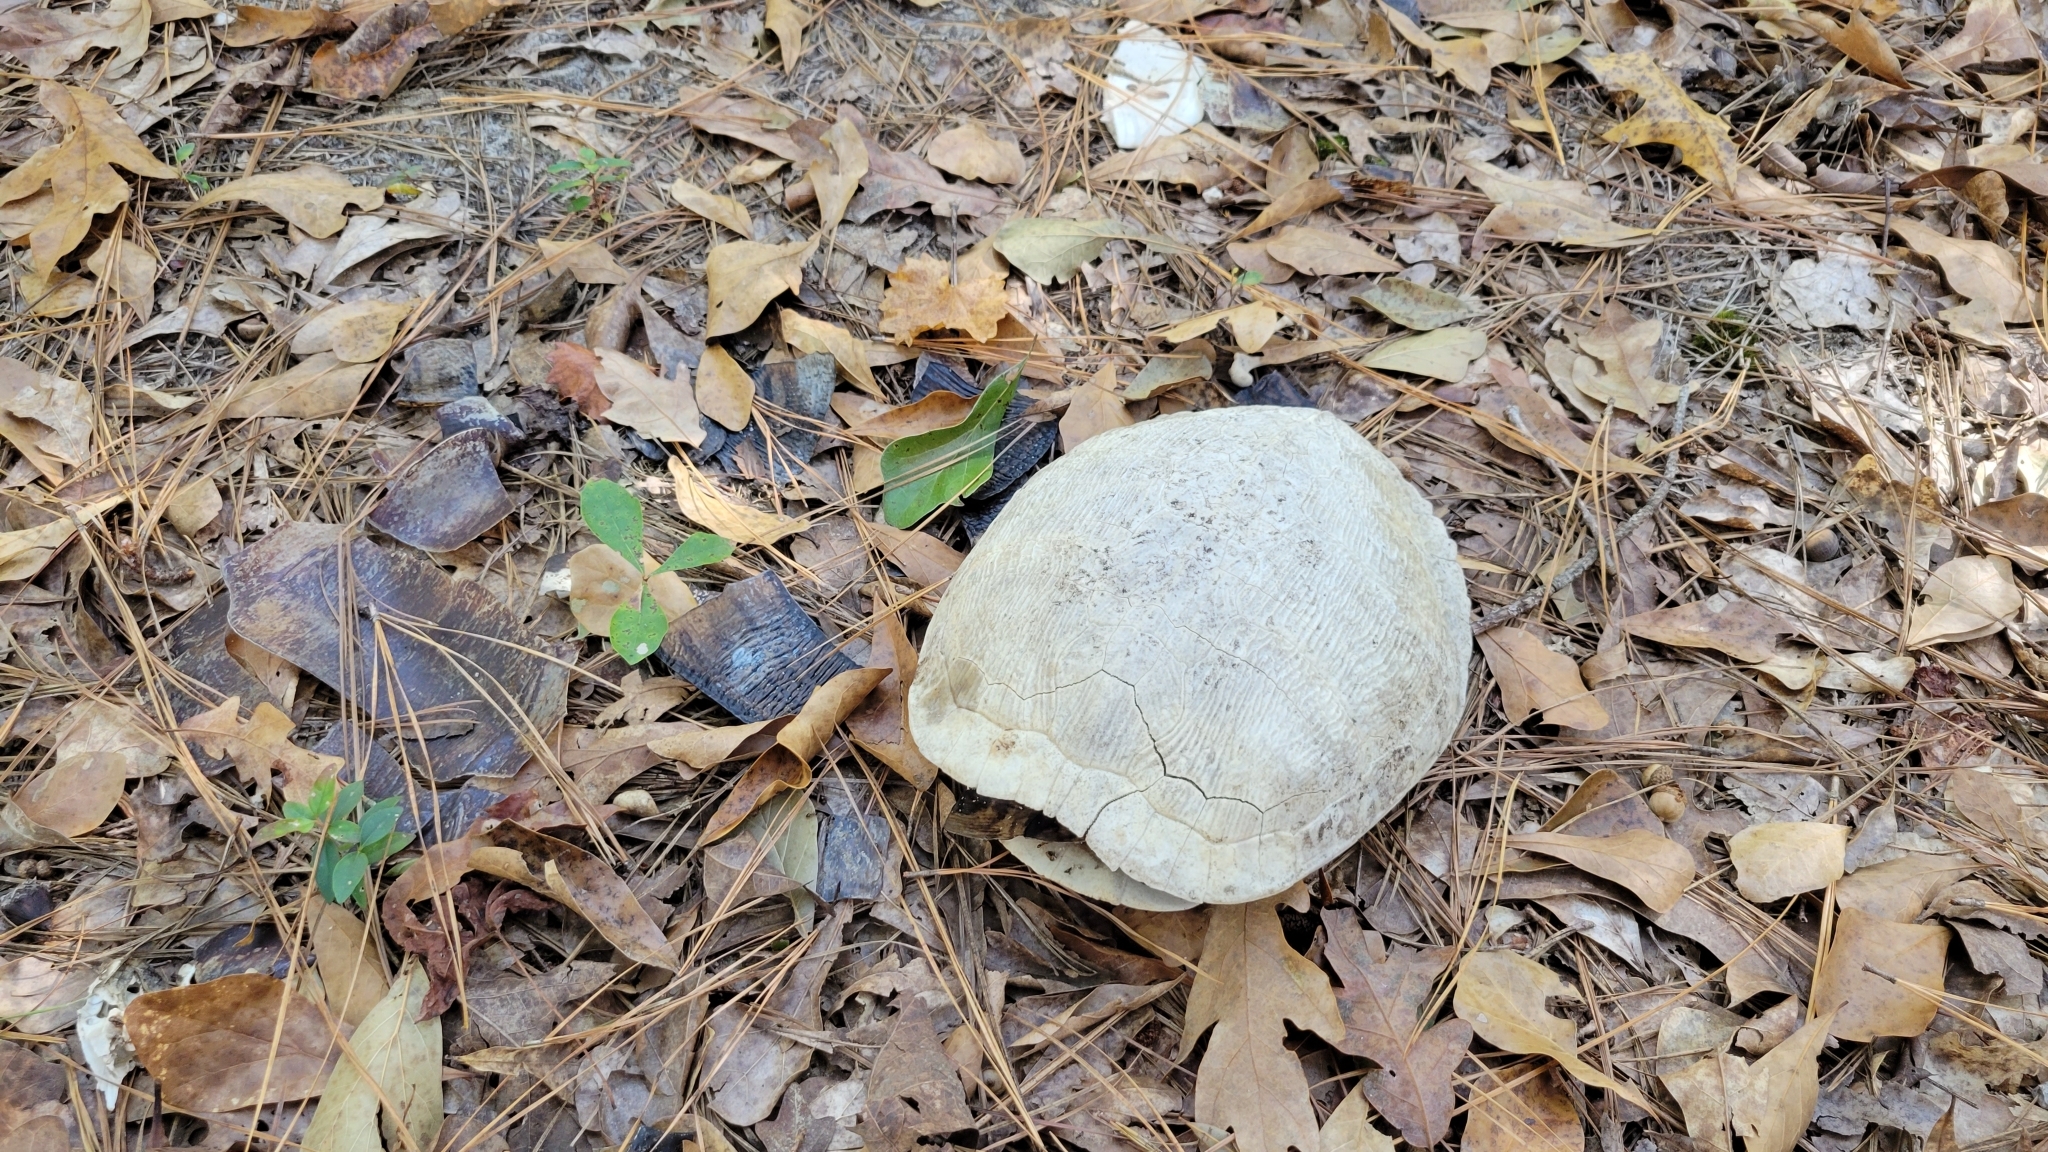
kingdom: Animalia
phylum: Chordata
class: Testudines
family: Emydidae
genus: Trachemys
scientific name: Trachemys scripta
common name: Slider
